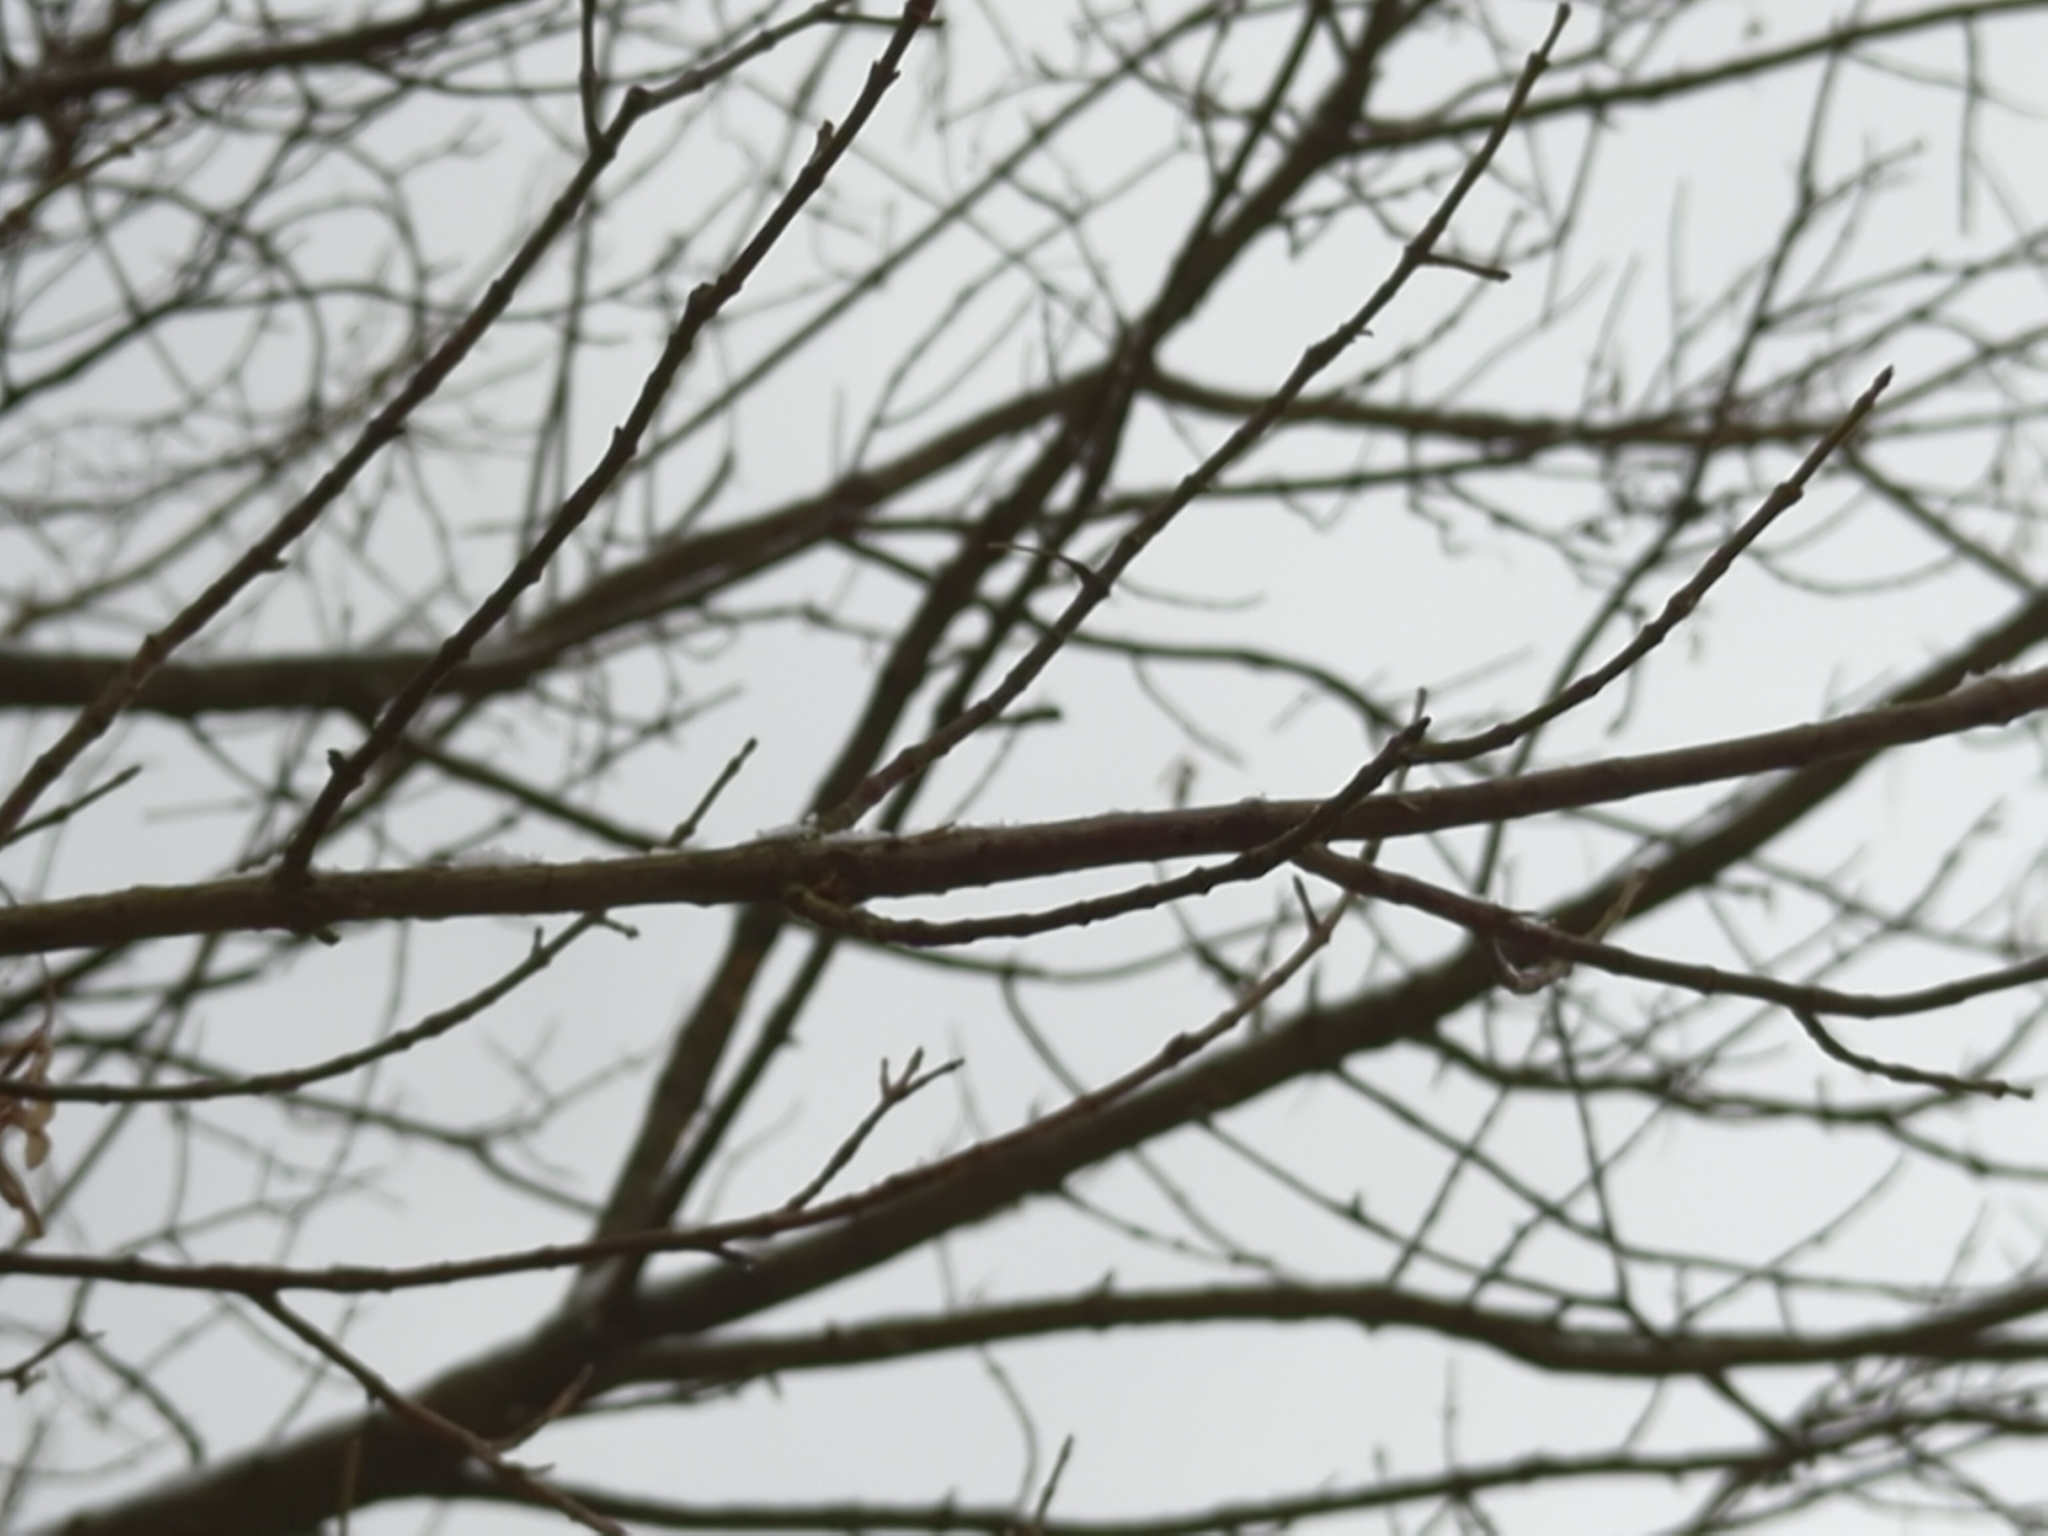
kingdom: Plantae
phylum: Tracheophyta
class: Magnoliopsida
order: Sapindales
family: Sapindaceae
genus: Acer
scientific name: Acer negundo
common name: Ashleaf maple
